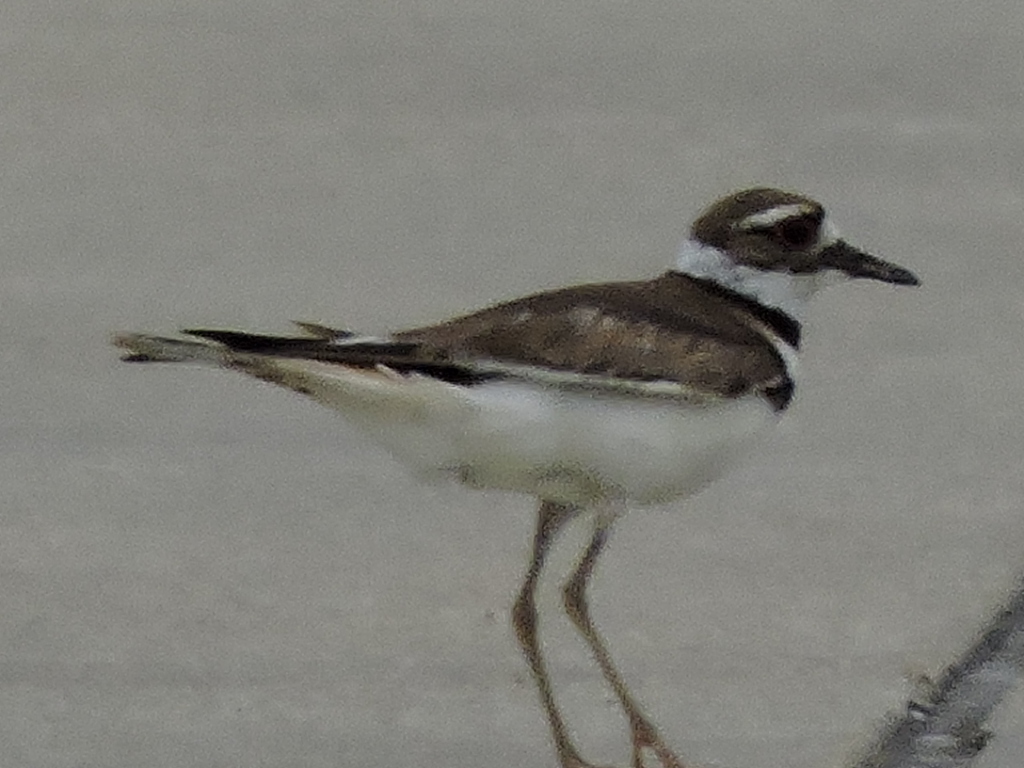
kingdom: Animalia
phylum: Chordata
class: Aves
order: Charadriiformes
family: Charadriidae
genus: Charadrius
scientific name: Charadrius vociferus
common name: Killdeer
